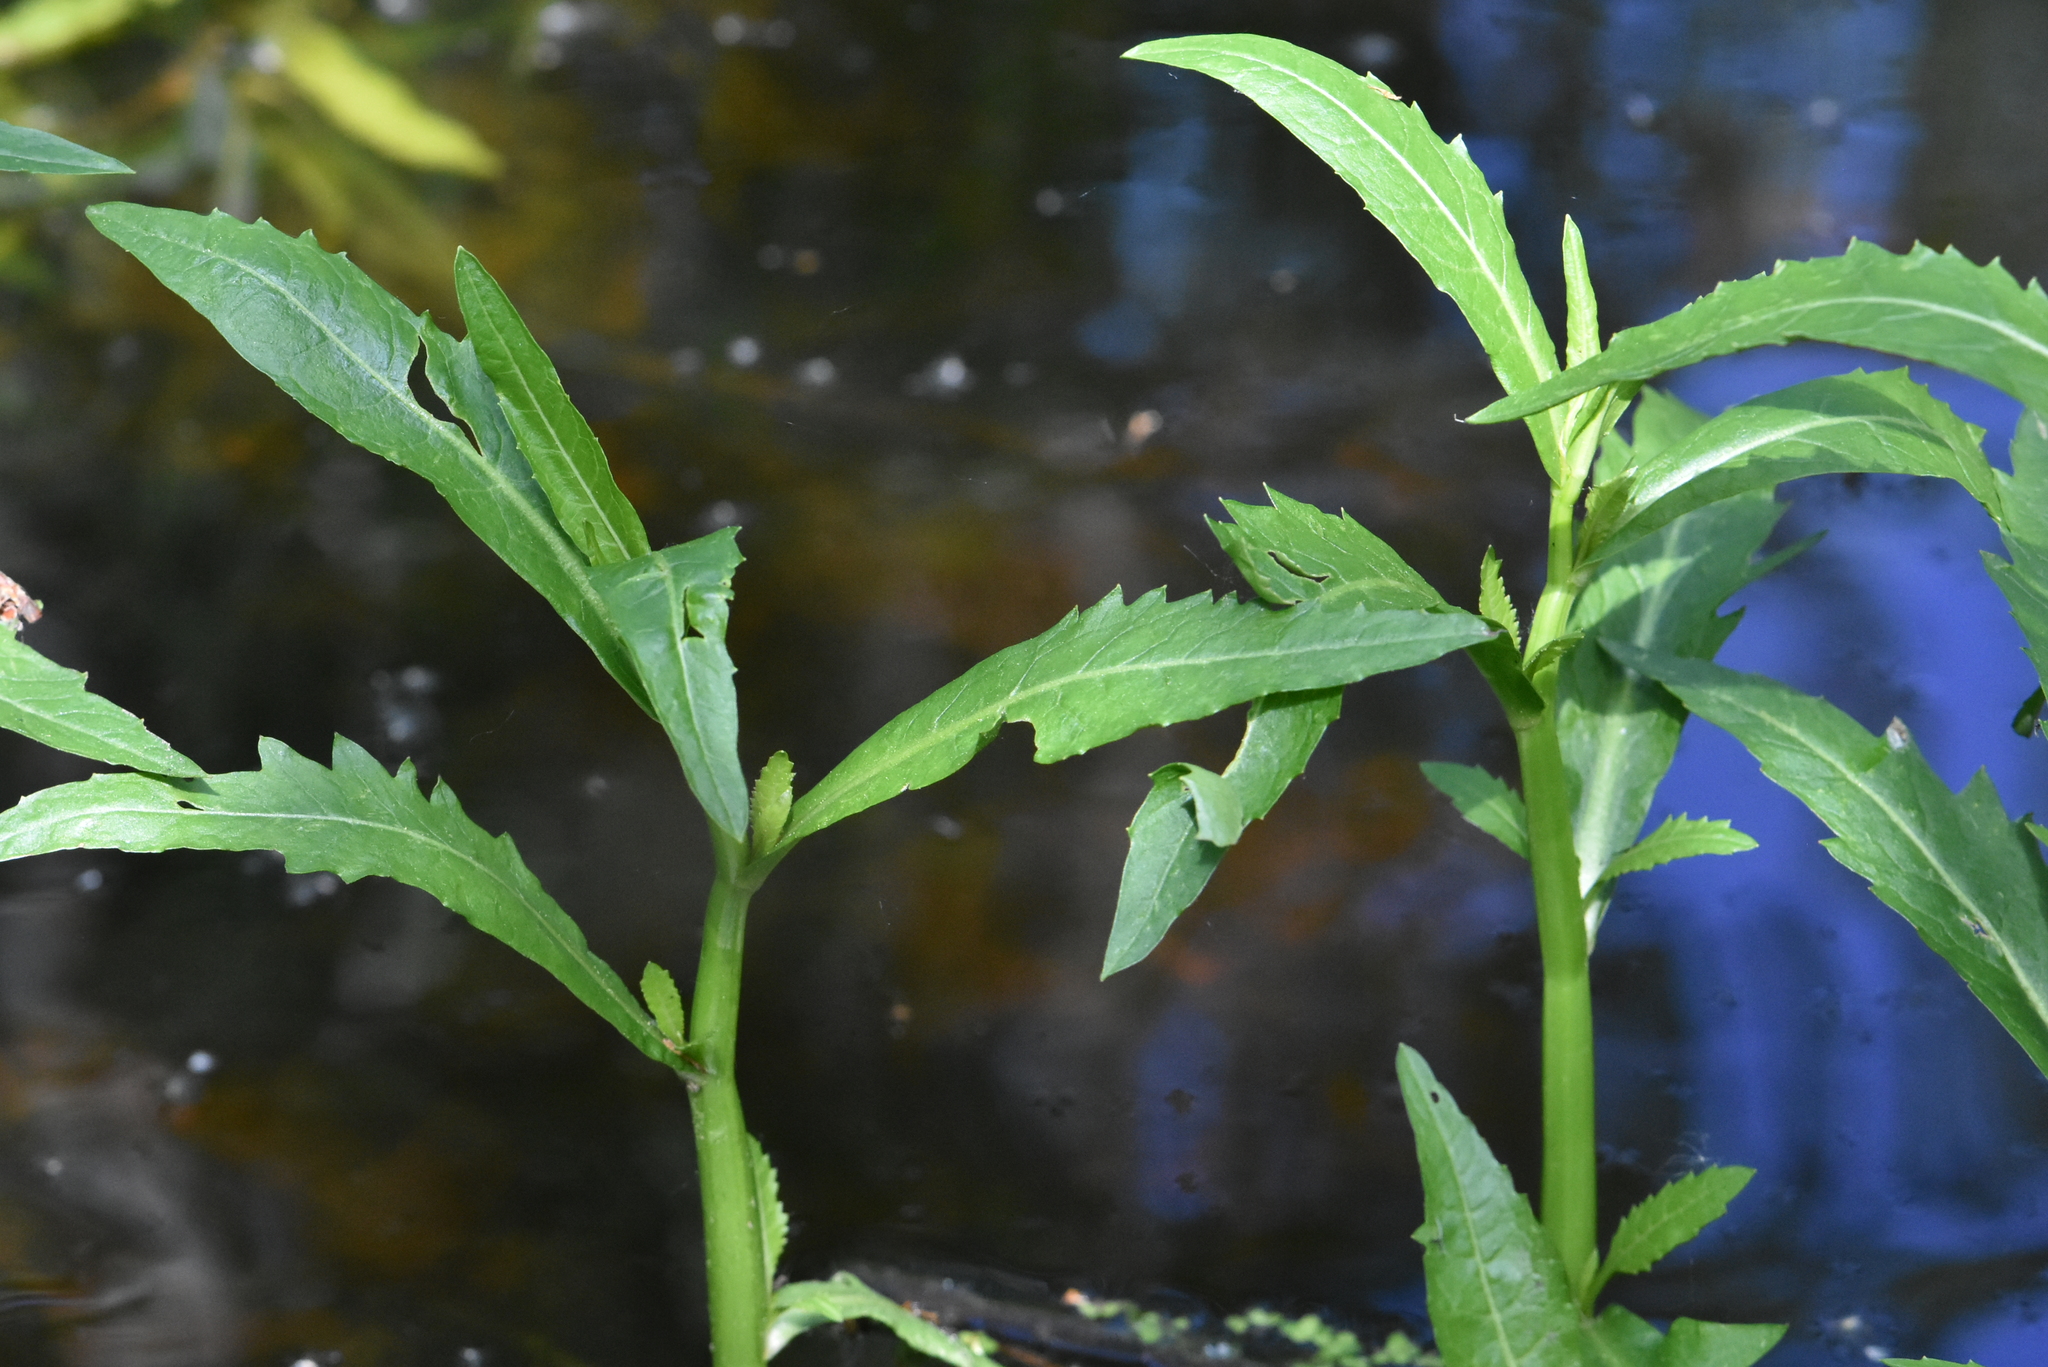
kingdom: Plantae
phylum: Tracheophyta
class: Magnoliopsida
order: Brassicales
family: Brassicaceae
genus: Rorippa
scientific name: Rorippa amphibia
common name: Great yellow-cress
